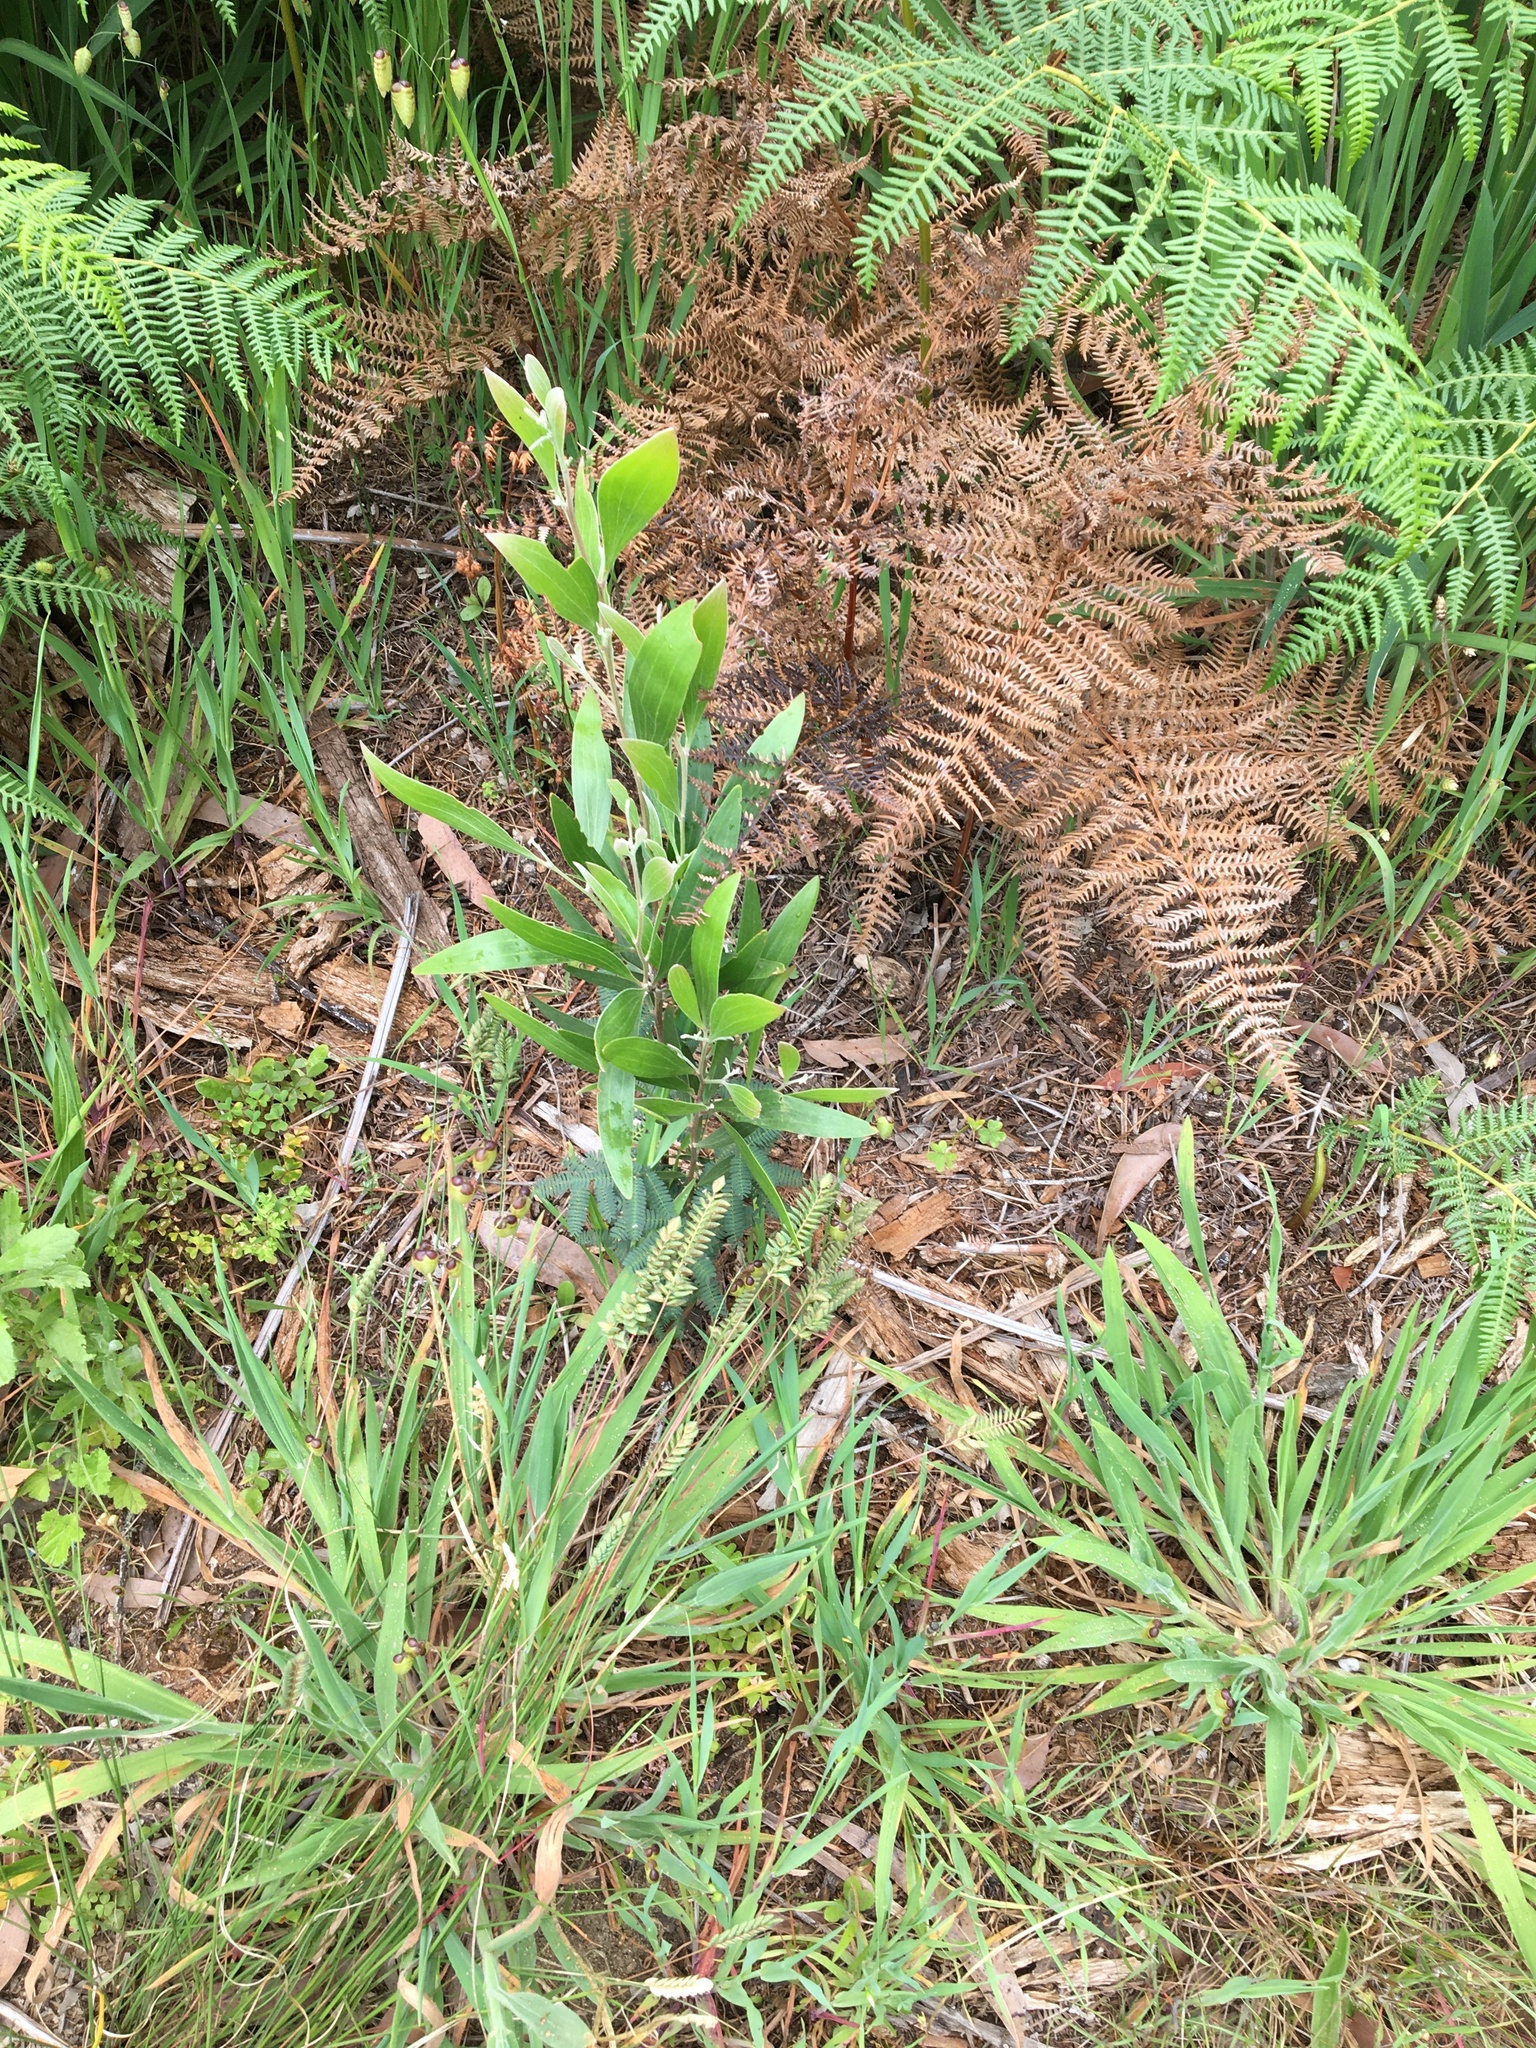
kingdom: Plantae
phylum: Tracheophyta
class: Magnoliopsida
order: Fabales
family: Fabaceae
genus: Acacia
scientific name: Acacia melanoxylon
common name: Blackwood
